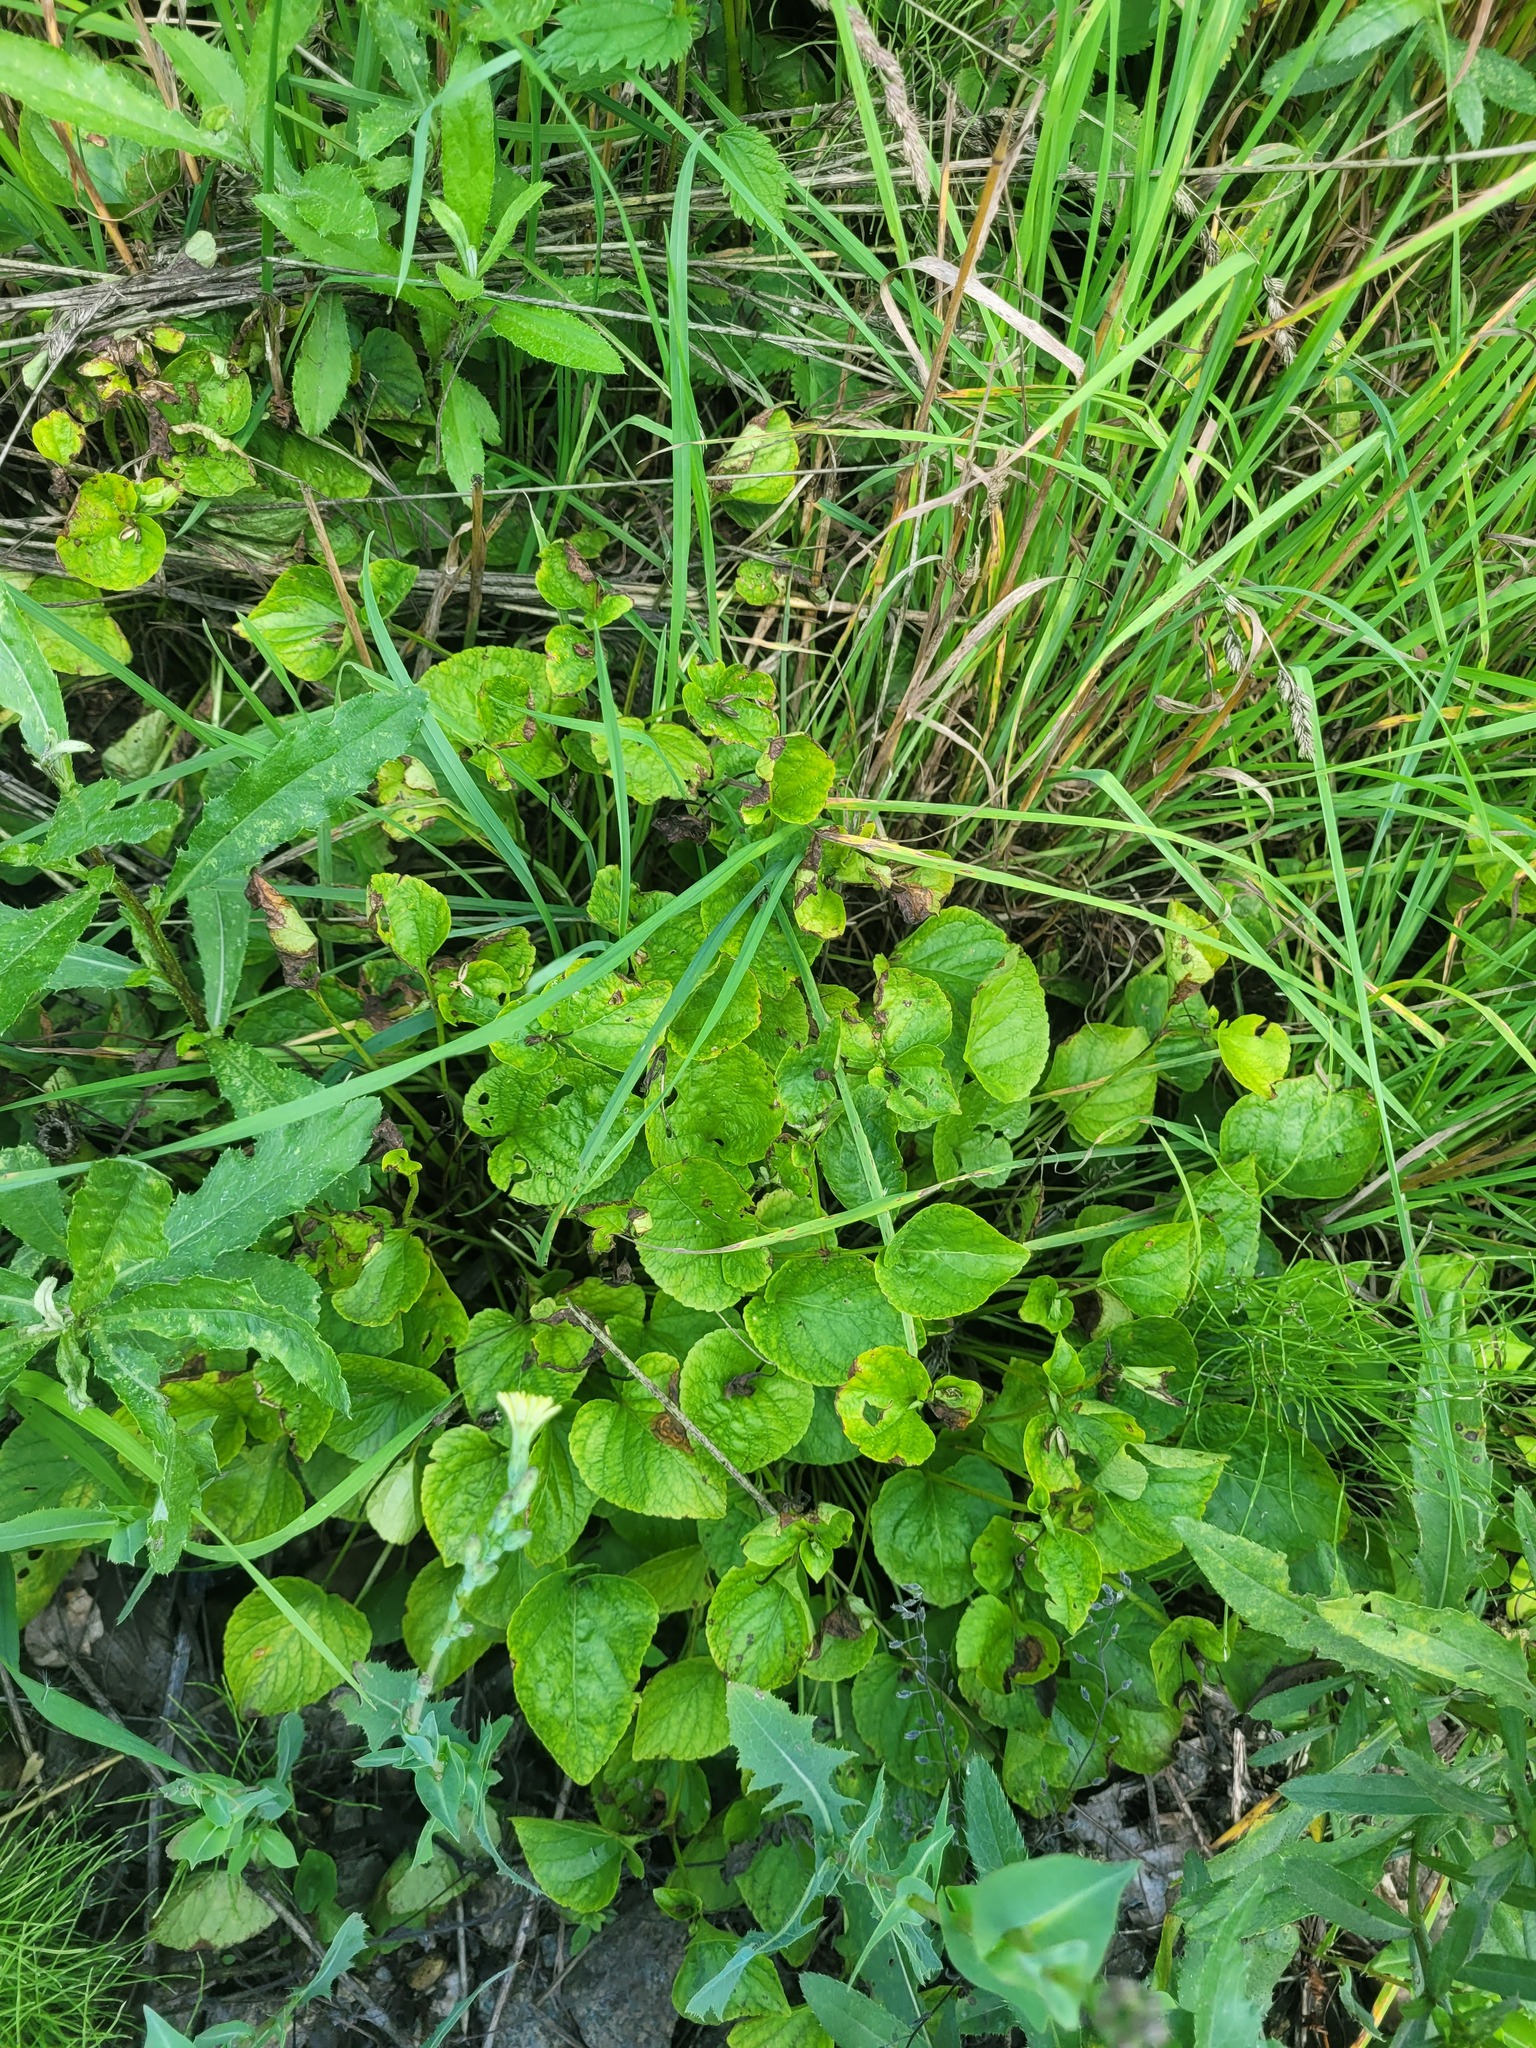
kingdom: Plantae
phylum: Tracheophyta
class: Magnoliopsida
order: Malpighiales
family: Violaceae
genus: Viola
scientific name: Viola mirabilis
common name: Wonder violet
